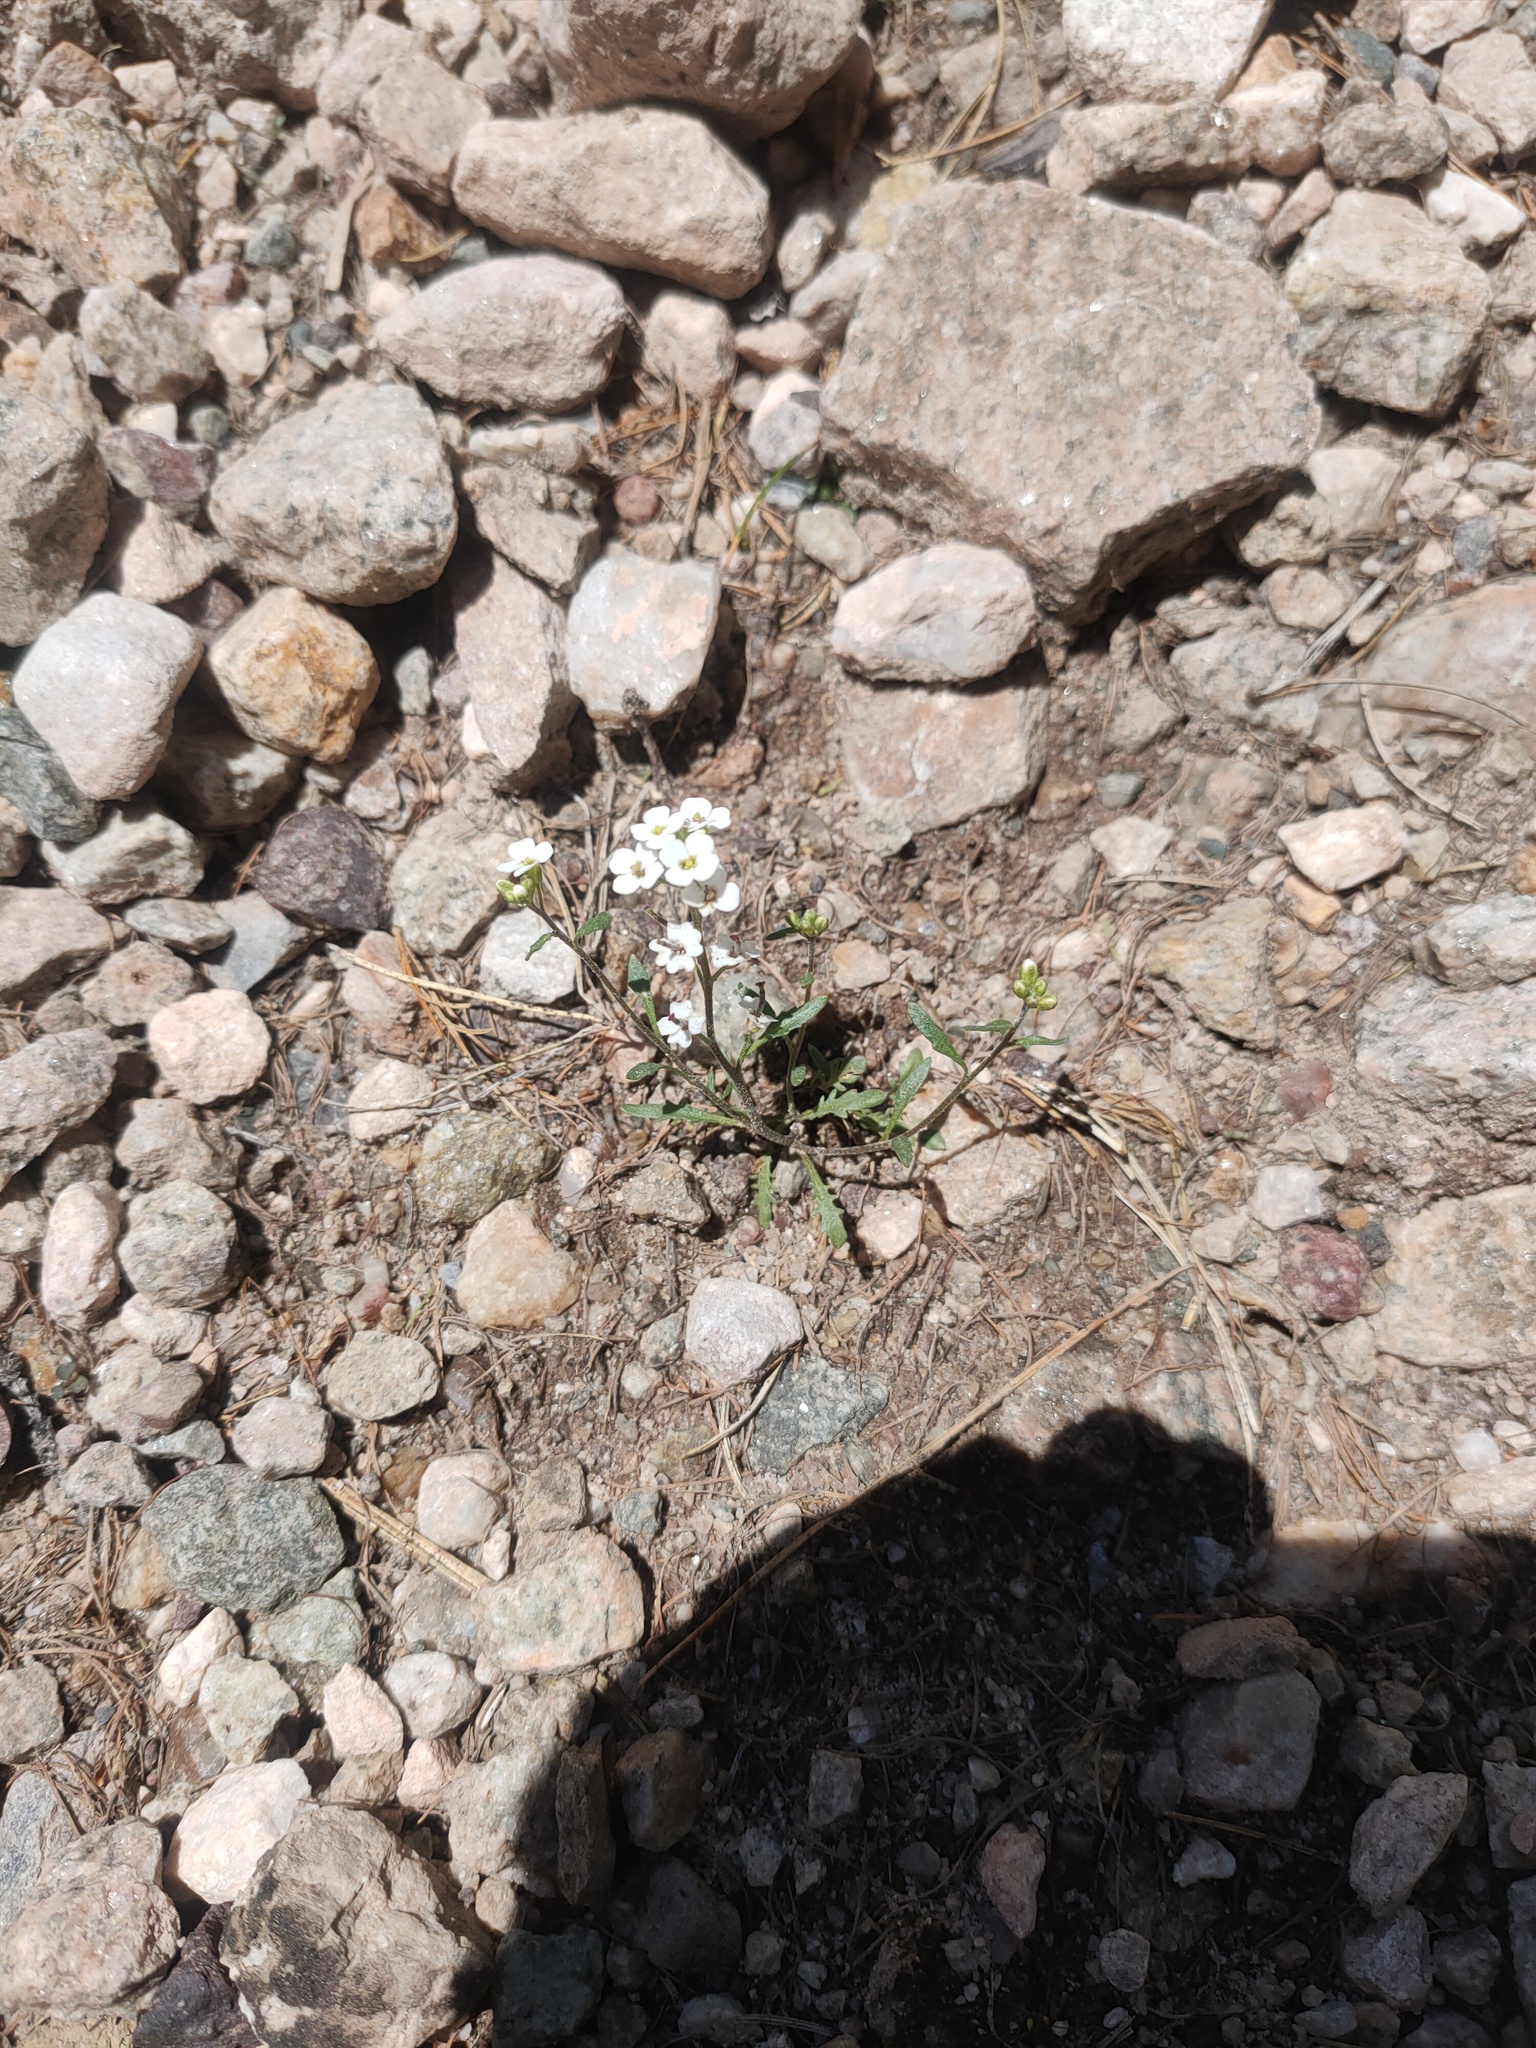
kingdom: Plantae
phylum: Tracheophyta
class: Magnoliopsida
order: Brassicales
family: Brassicaceae
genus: Braya
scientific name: Braya humilis
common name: Alpine northern rockcress
